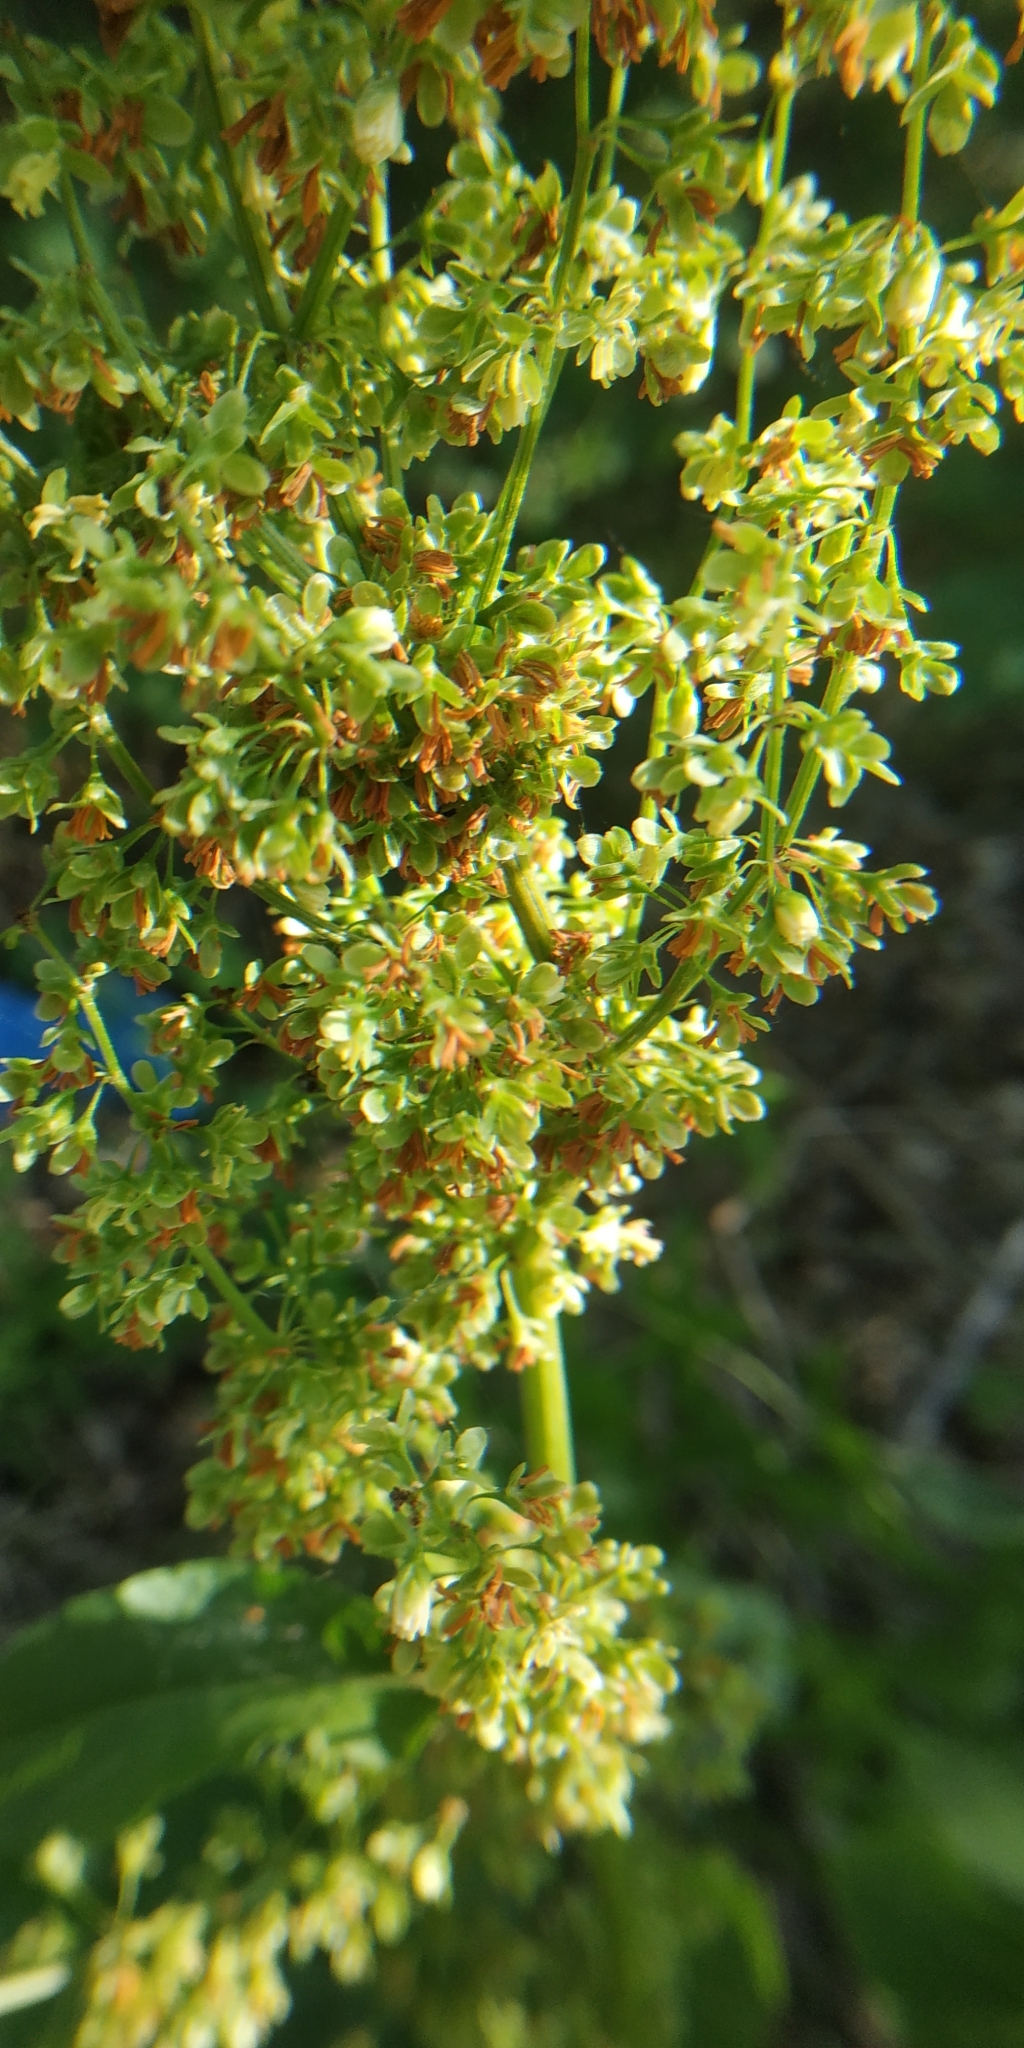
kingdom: Plantae
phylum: Tracheophyta
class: Magnoliopsida
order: Caryophyllales
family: Polygonaceae
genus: Rumex
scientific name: Rumex aquaticus
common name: Scottish dock
